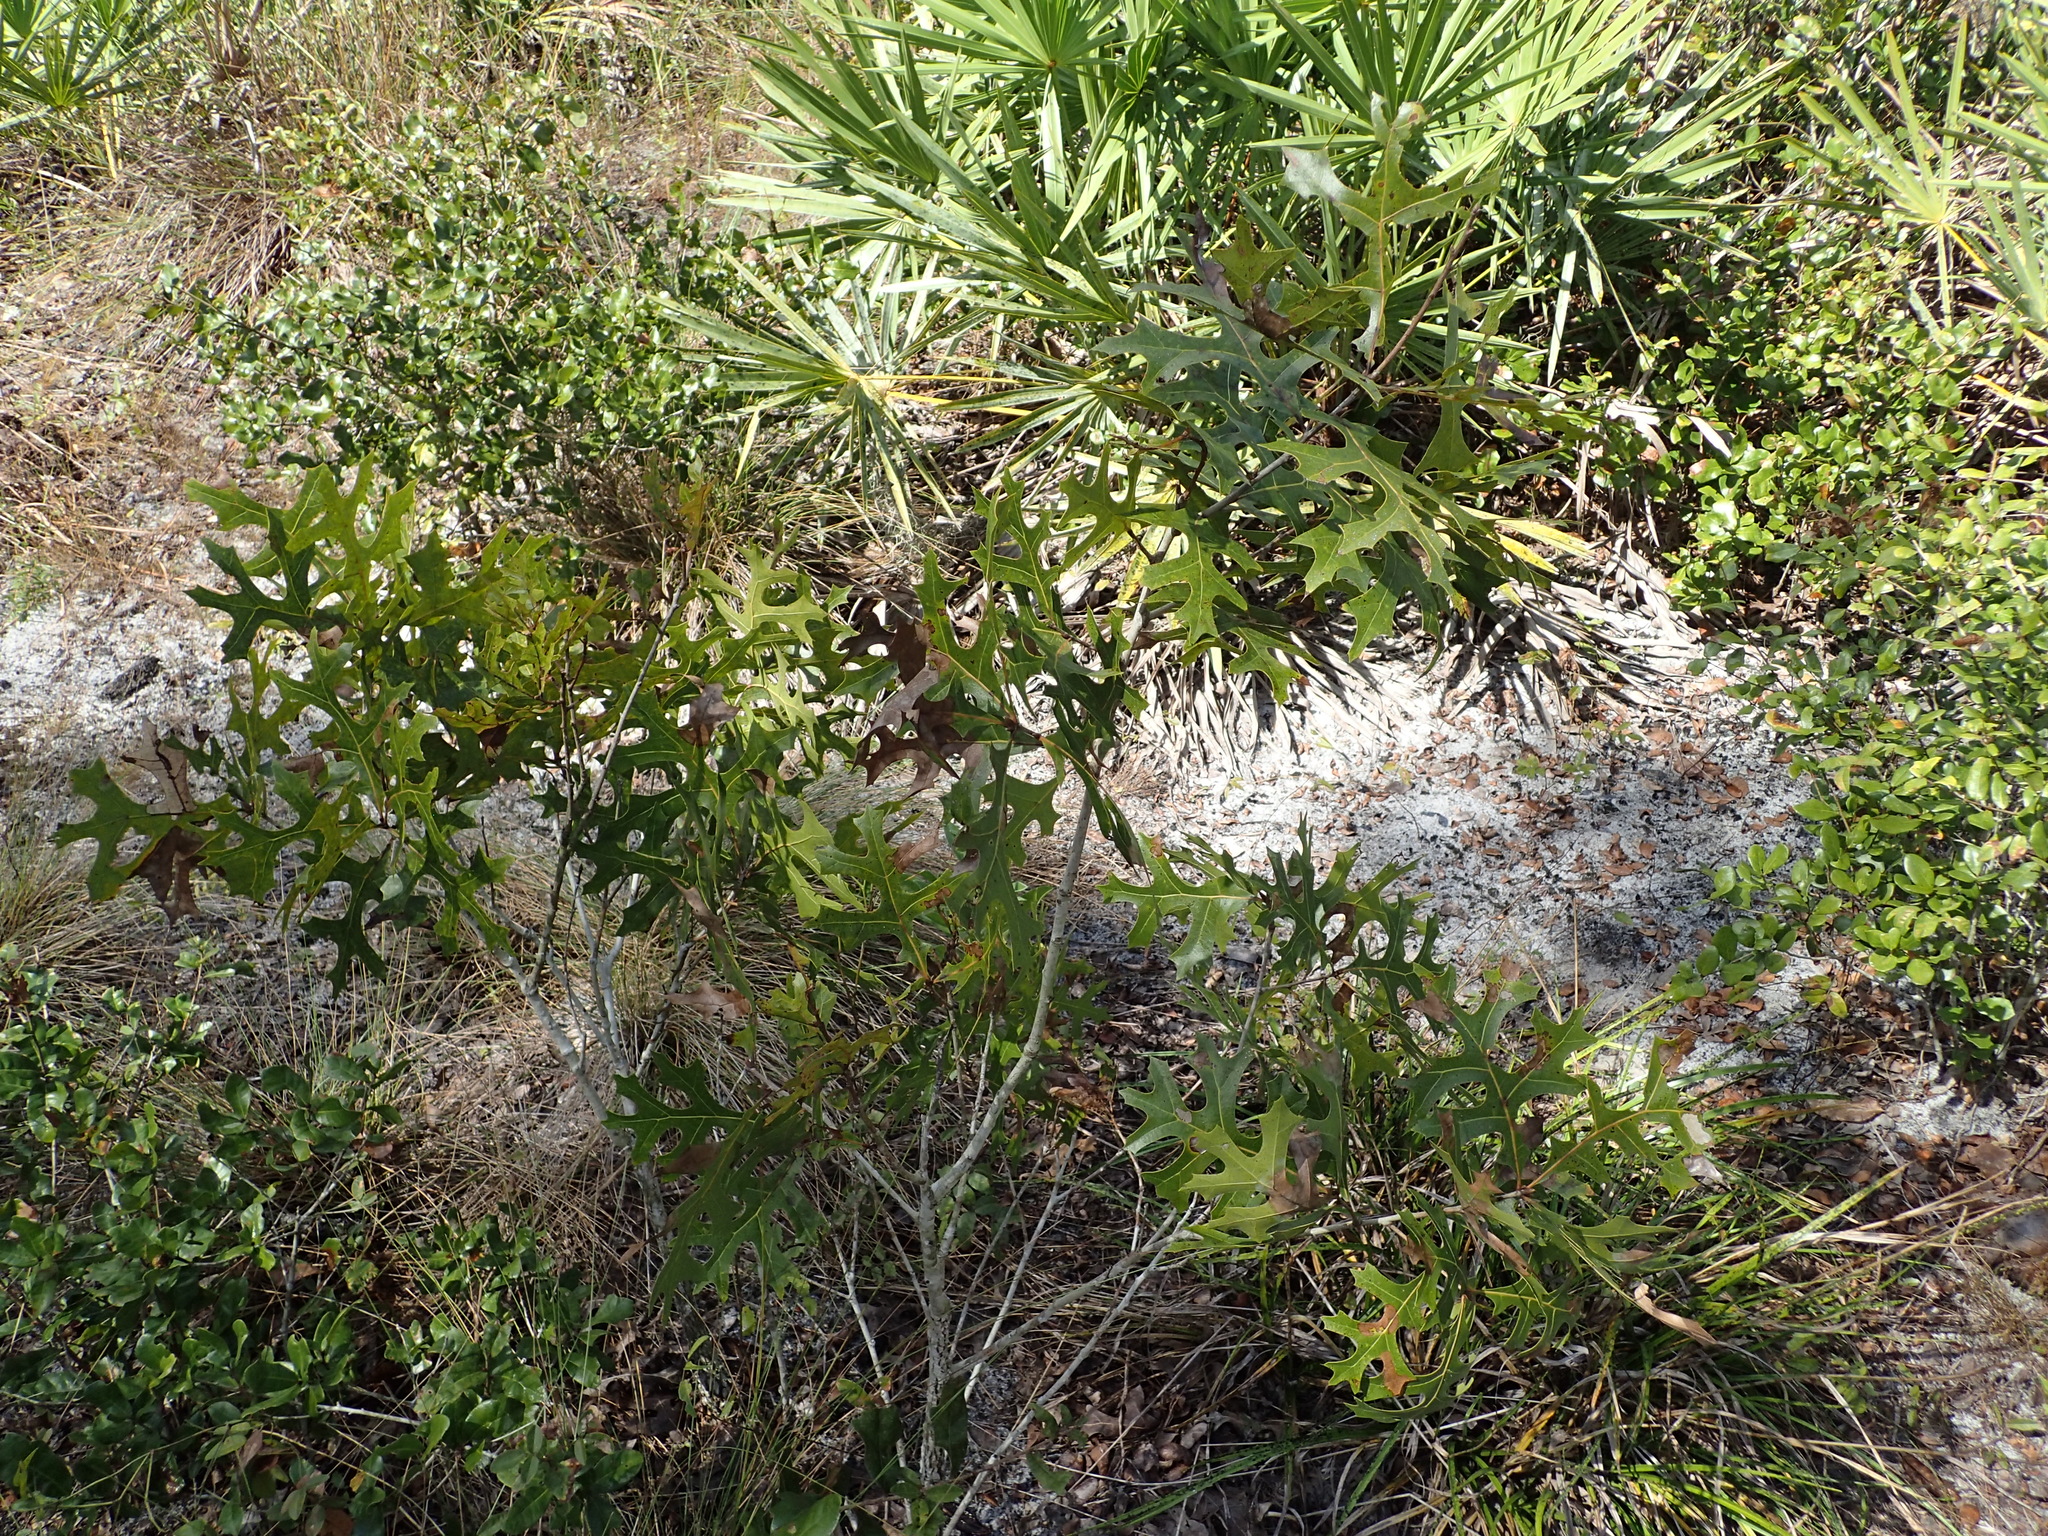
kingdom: Plantae
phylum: Tracheophyta
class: Magnoliopsida
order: Fagales
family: Fagaceae
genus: Quercus
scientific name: Quercus laevis
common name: Turkey oak
